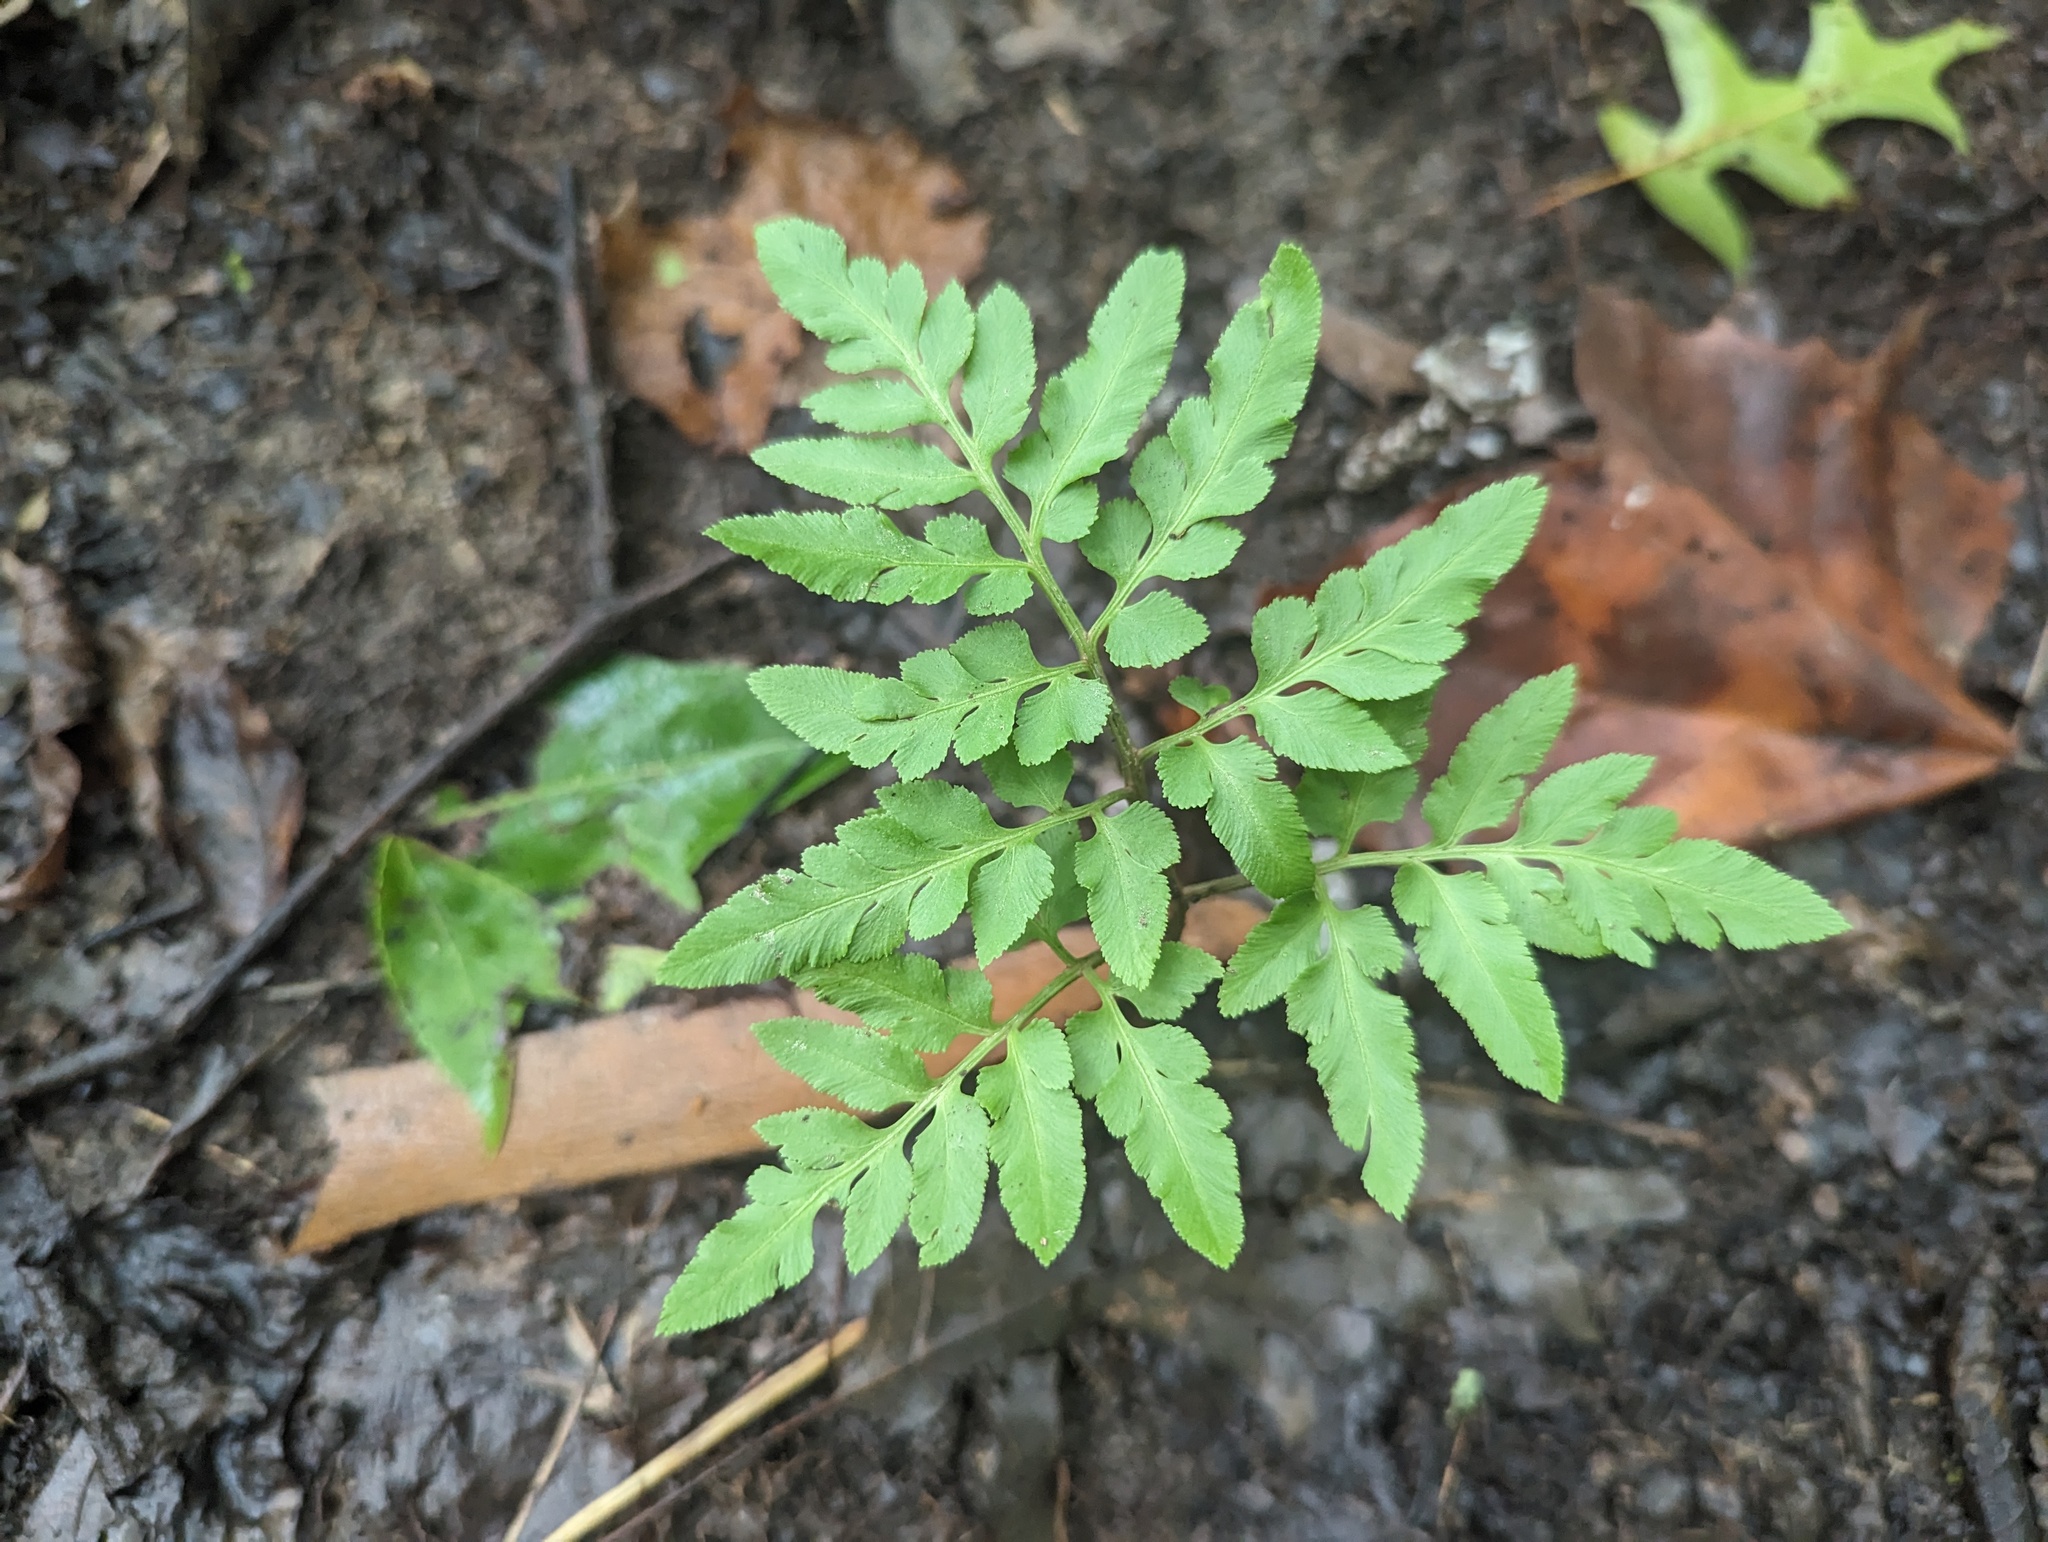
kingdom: Plantae
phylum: Tracheophyta
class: Polypodiopsida
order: Ophioglossales
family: Ophioglossaceae
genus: Sceptridium
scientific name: Sceptridium dissectum
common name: Cut-leaved grapefern
